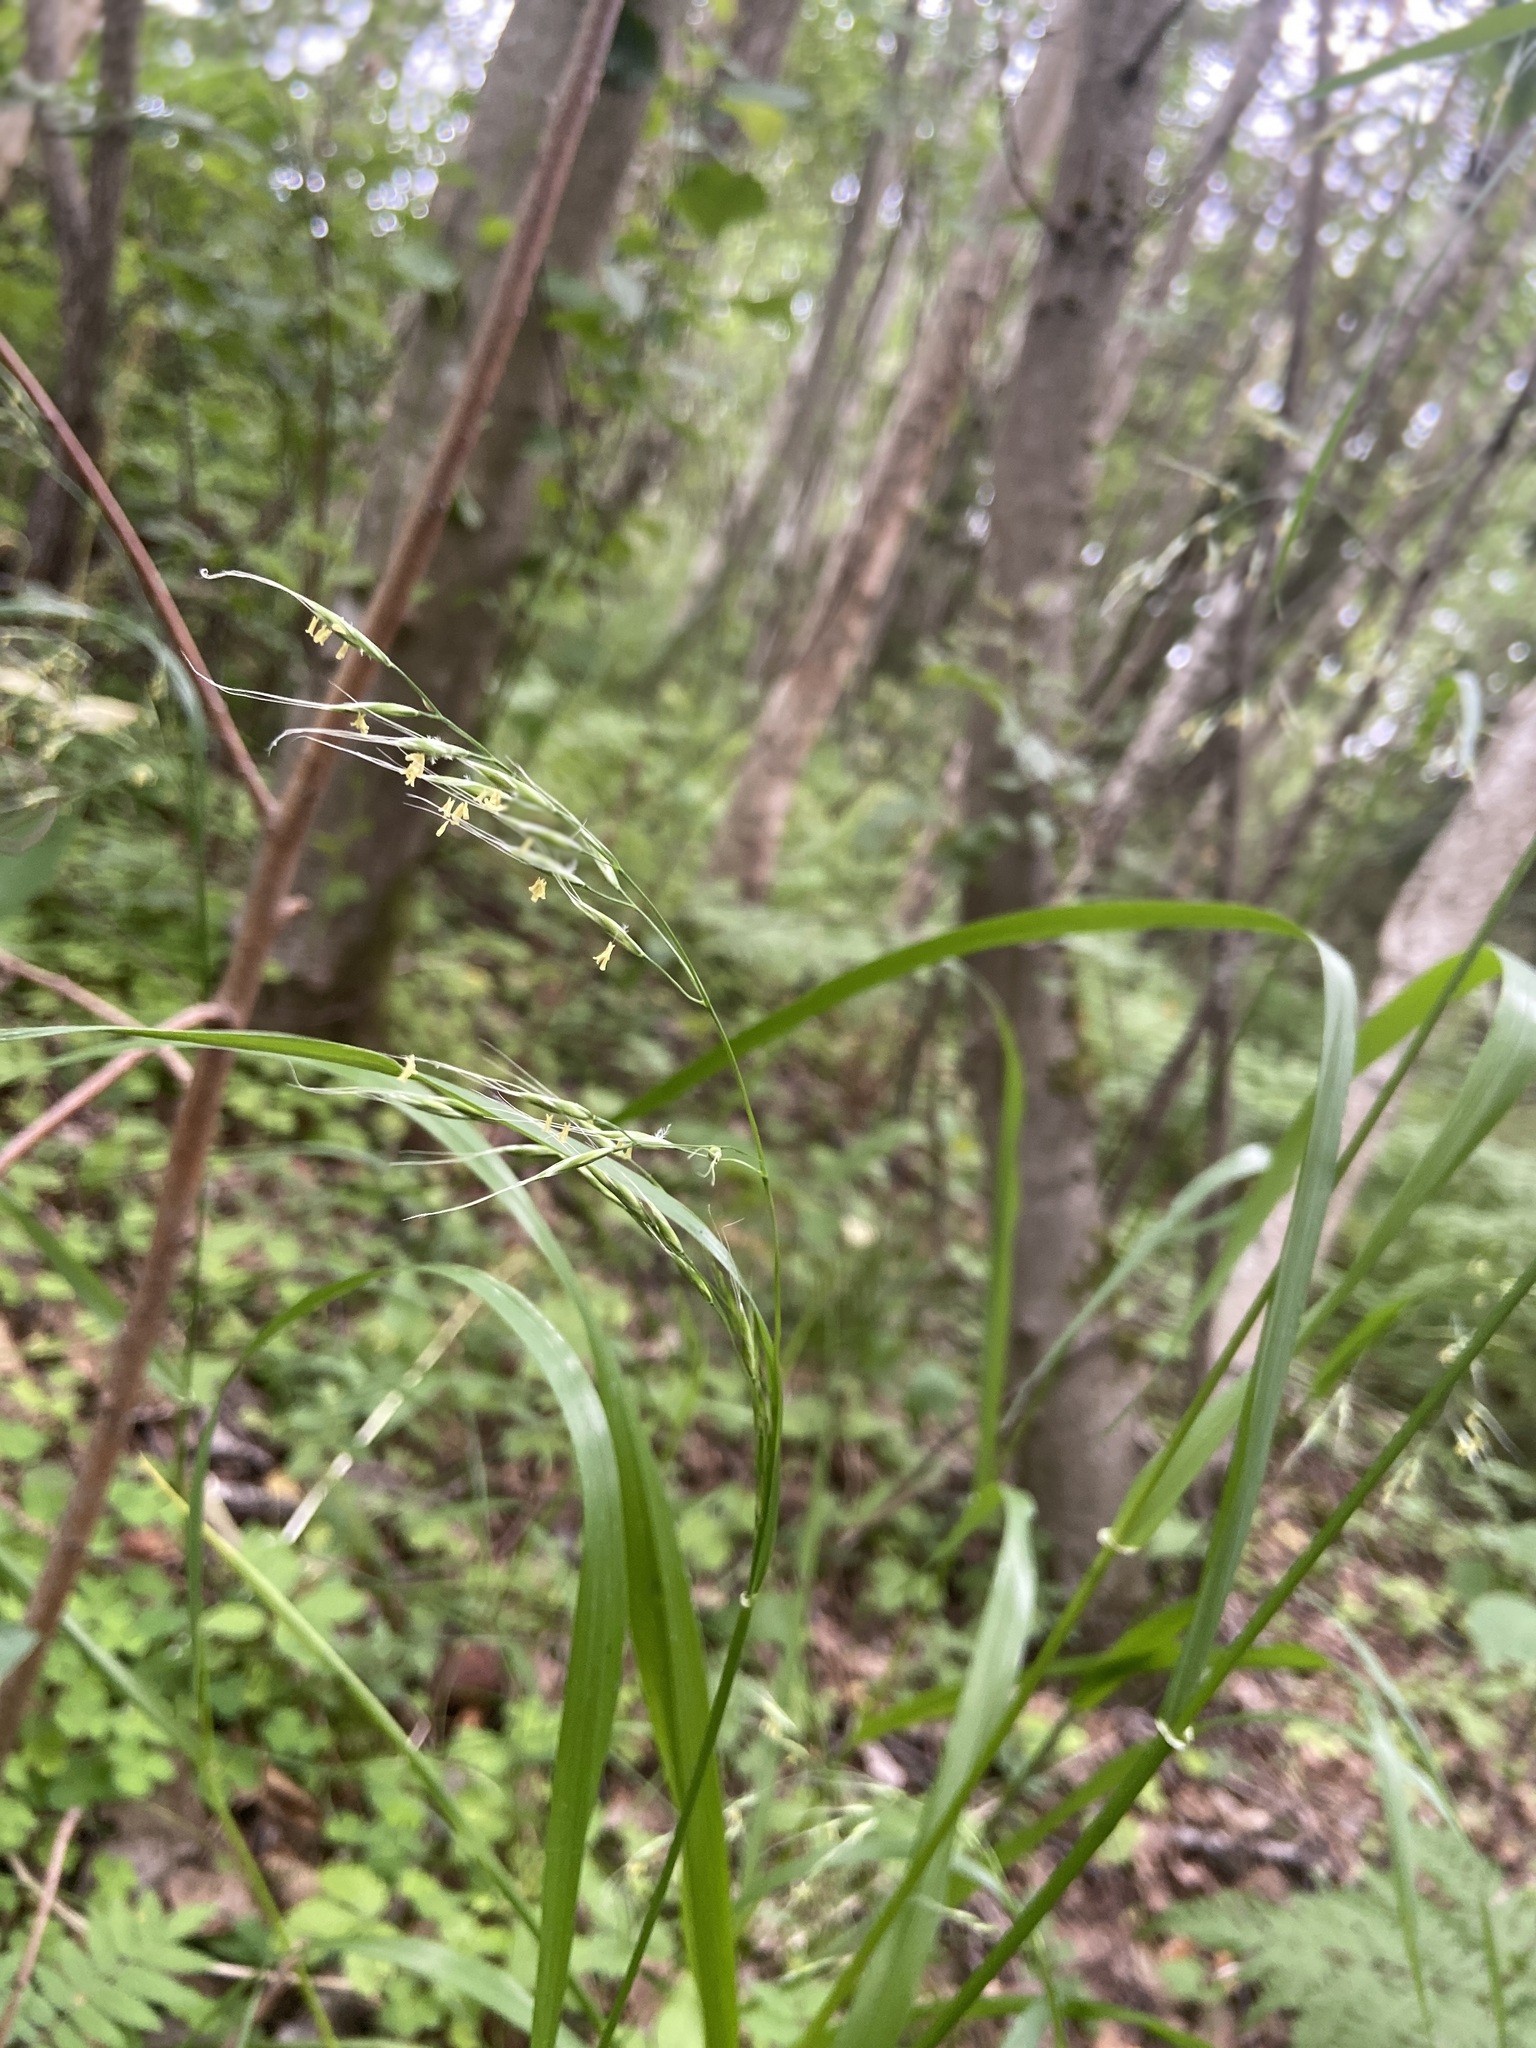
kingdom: Plantae
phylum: Tracheophyta
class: Liliopsida
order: Poales
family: Poaceae
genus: Lolium
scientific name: Lolium giganteum
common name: Giant fescue
